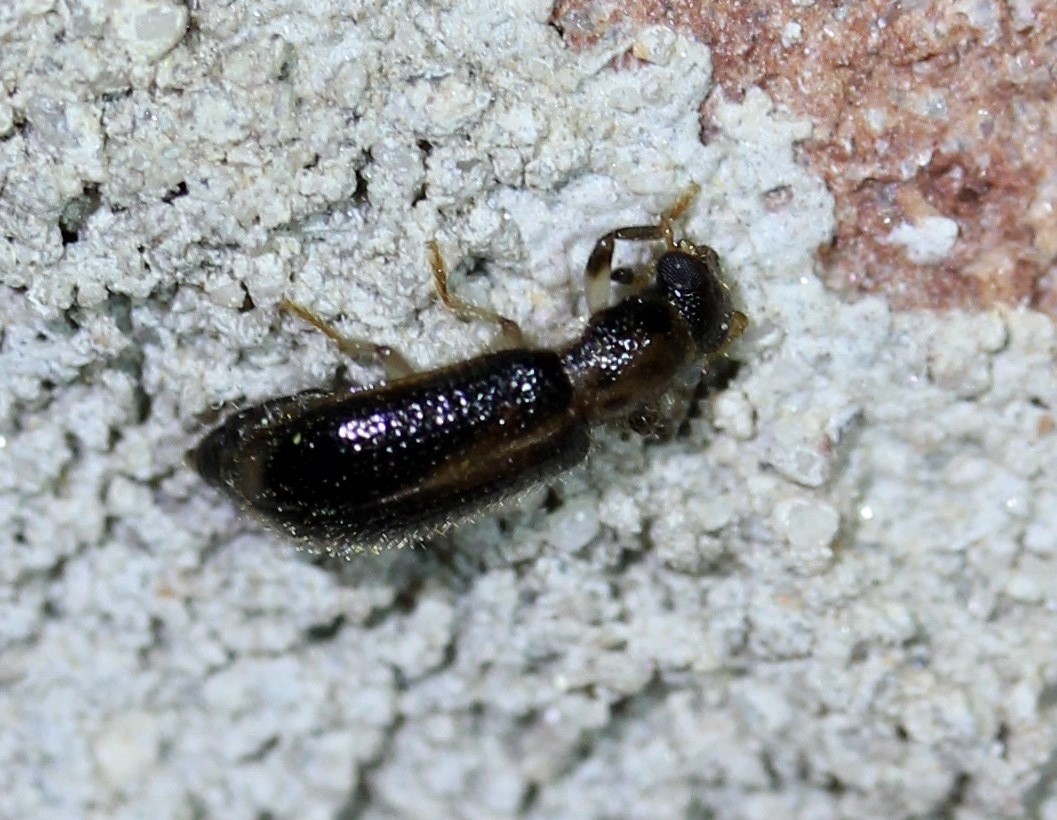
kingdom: Animalia
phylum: Arthropoda
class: Insecta
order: Coleoptera
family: Cleridae
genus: Cregya
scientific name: Cregya oculata
